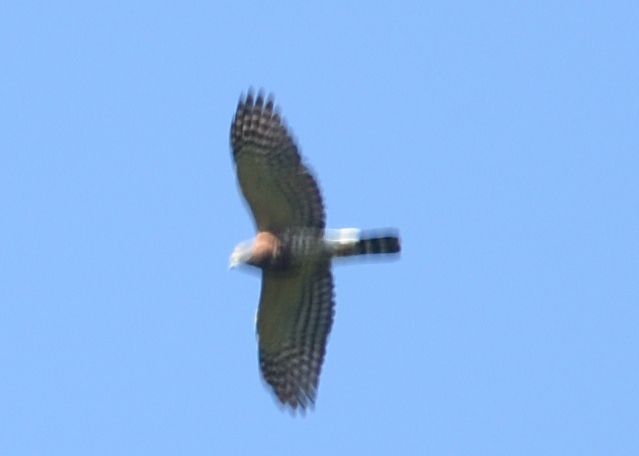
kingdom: Animalia
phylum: Chordata
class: Aves
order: Accipitriformes
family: Accipitridae
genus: Harpagus
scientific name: Harpagus bidentatus
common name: Double-toothed kite
